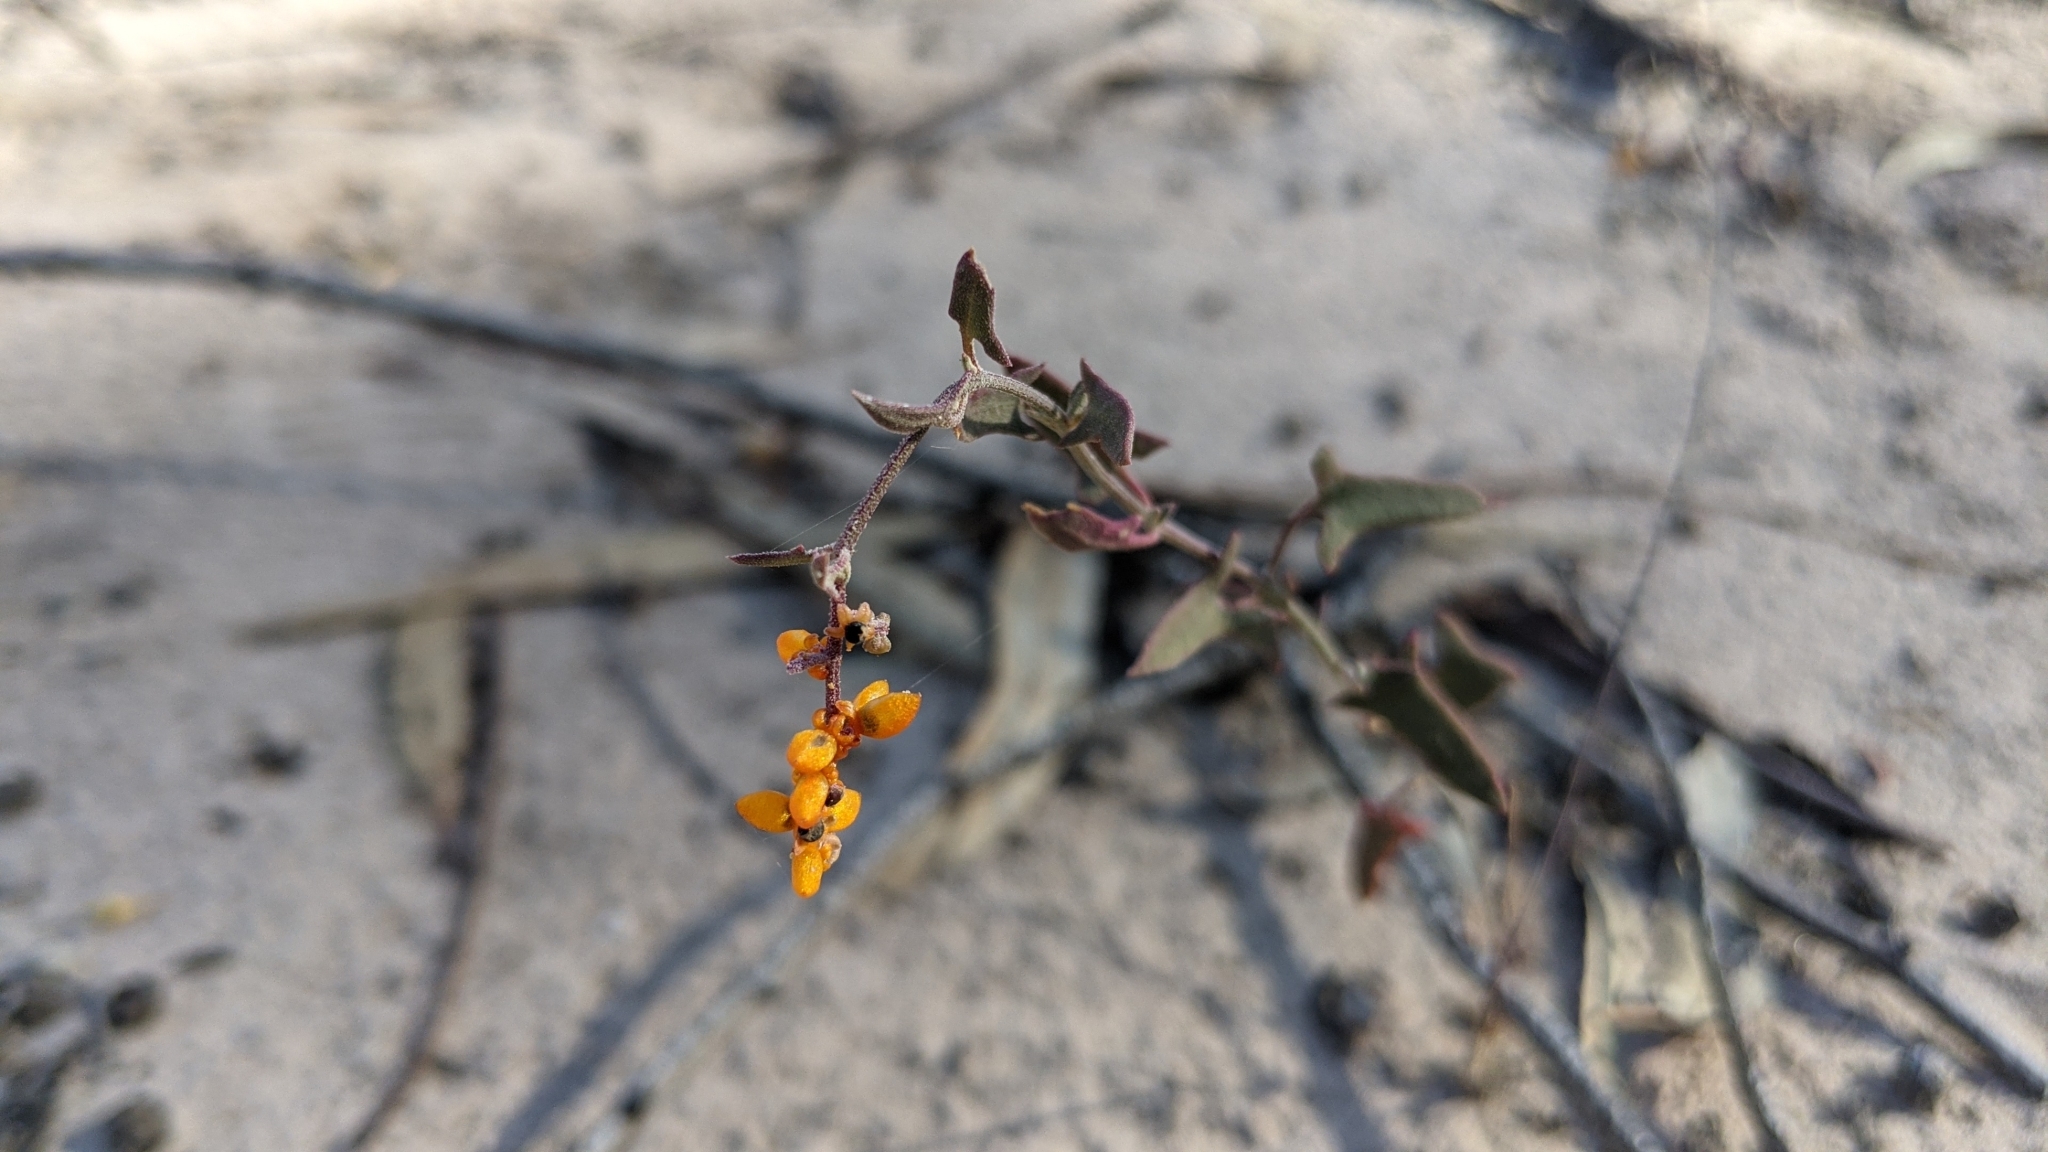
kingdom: Plantae
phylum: Tracheophyta
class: Magnoliopsida
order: Caryophyllales
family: Amaranthaceae
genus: Chenopodium
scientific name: Chenopodium nutans
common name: Climbing-saltbush
